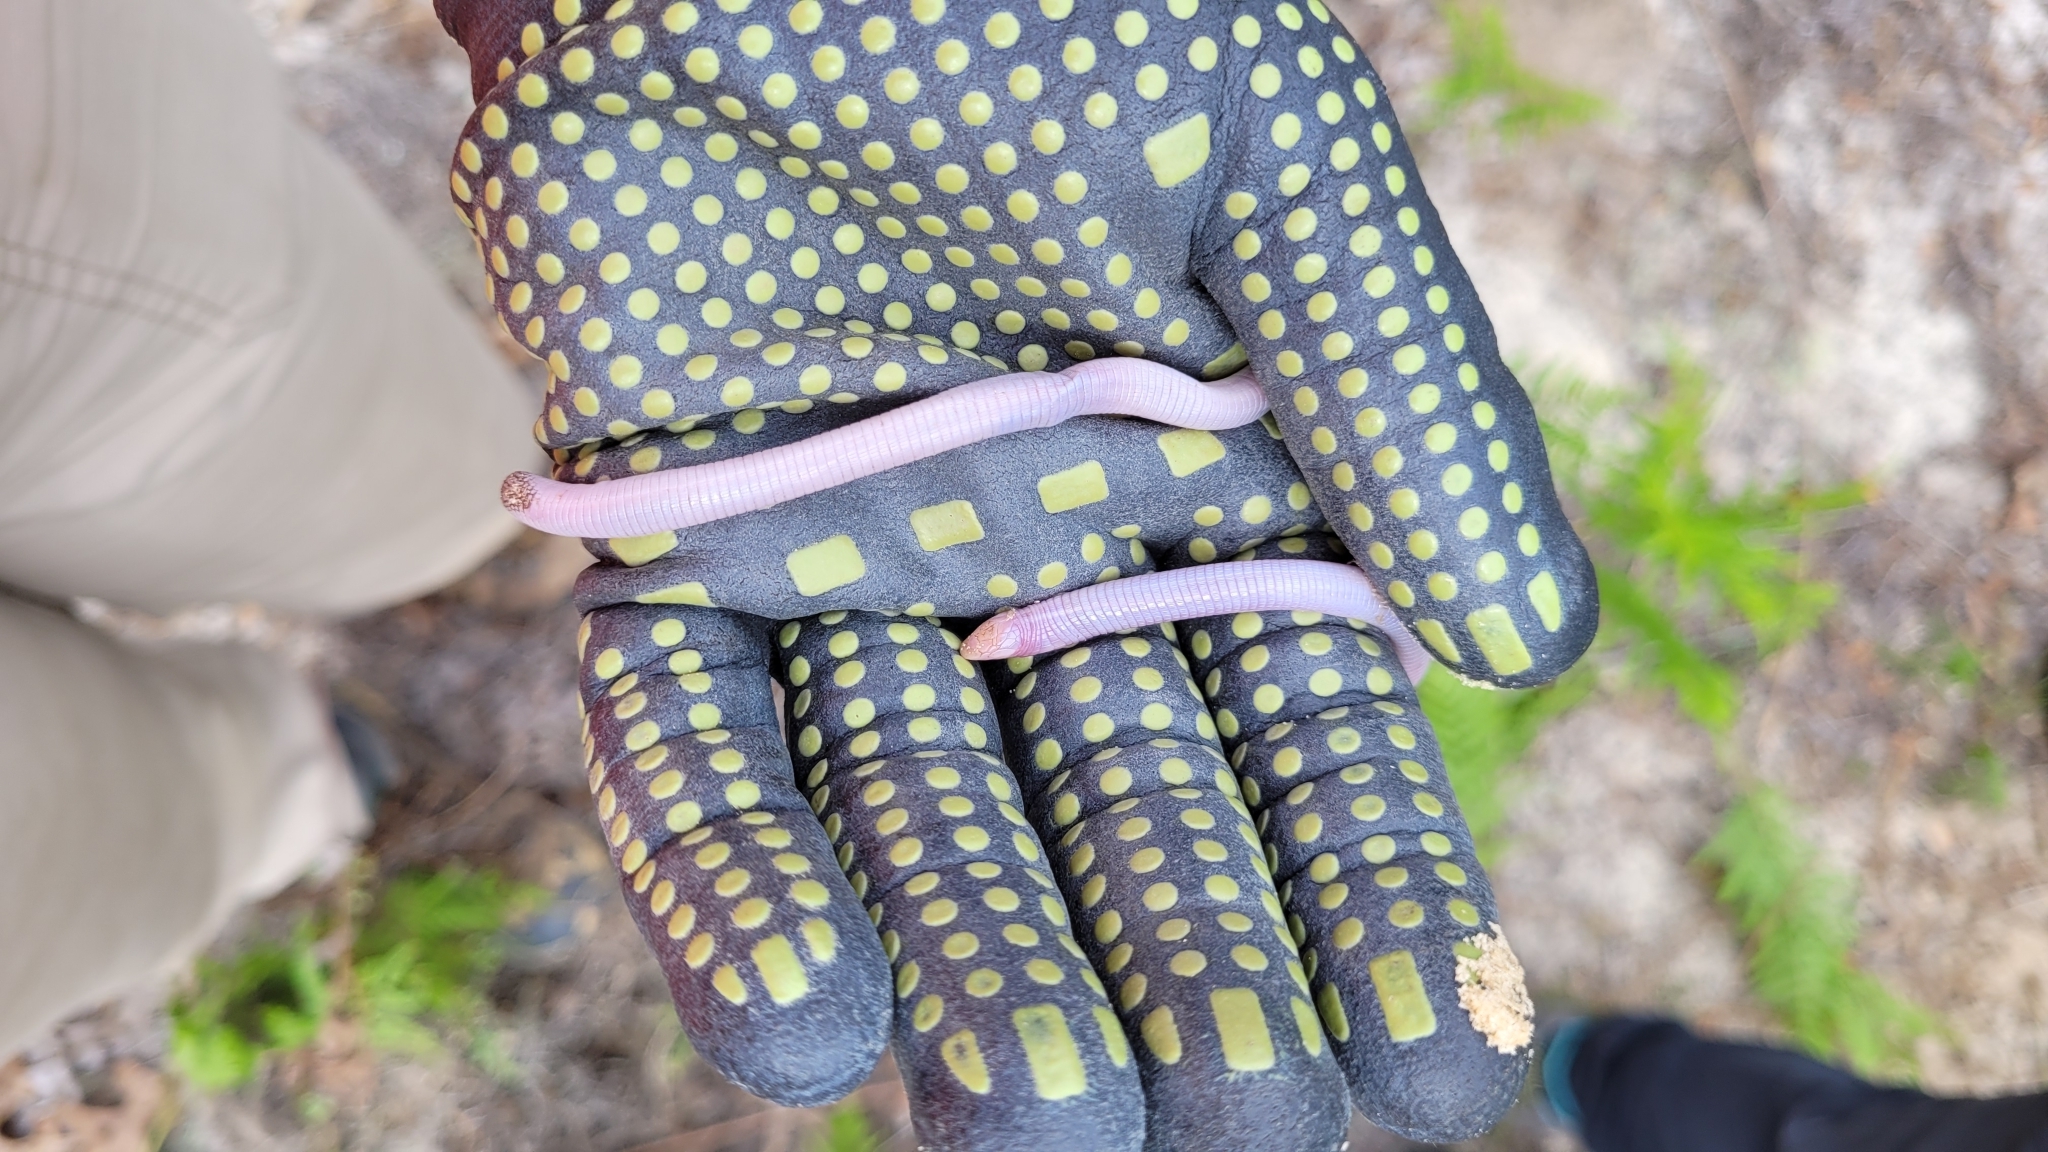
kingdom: Animalia
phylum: Chordata
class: Squamata
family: Rhineuridae
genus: Rhineura
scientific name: Rhineura floridana
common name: Florida worm lizard
